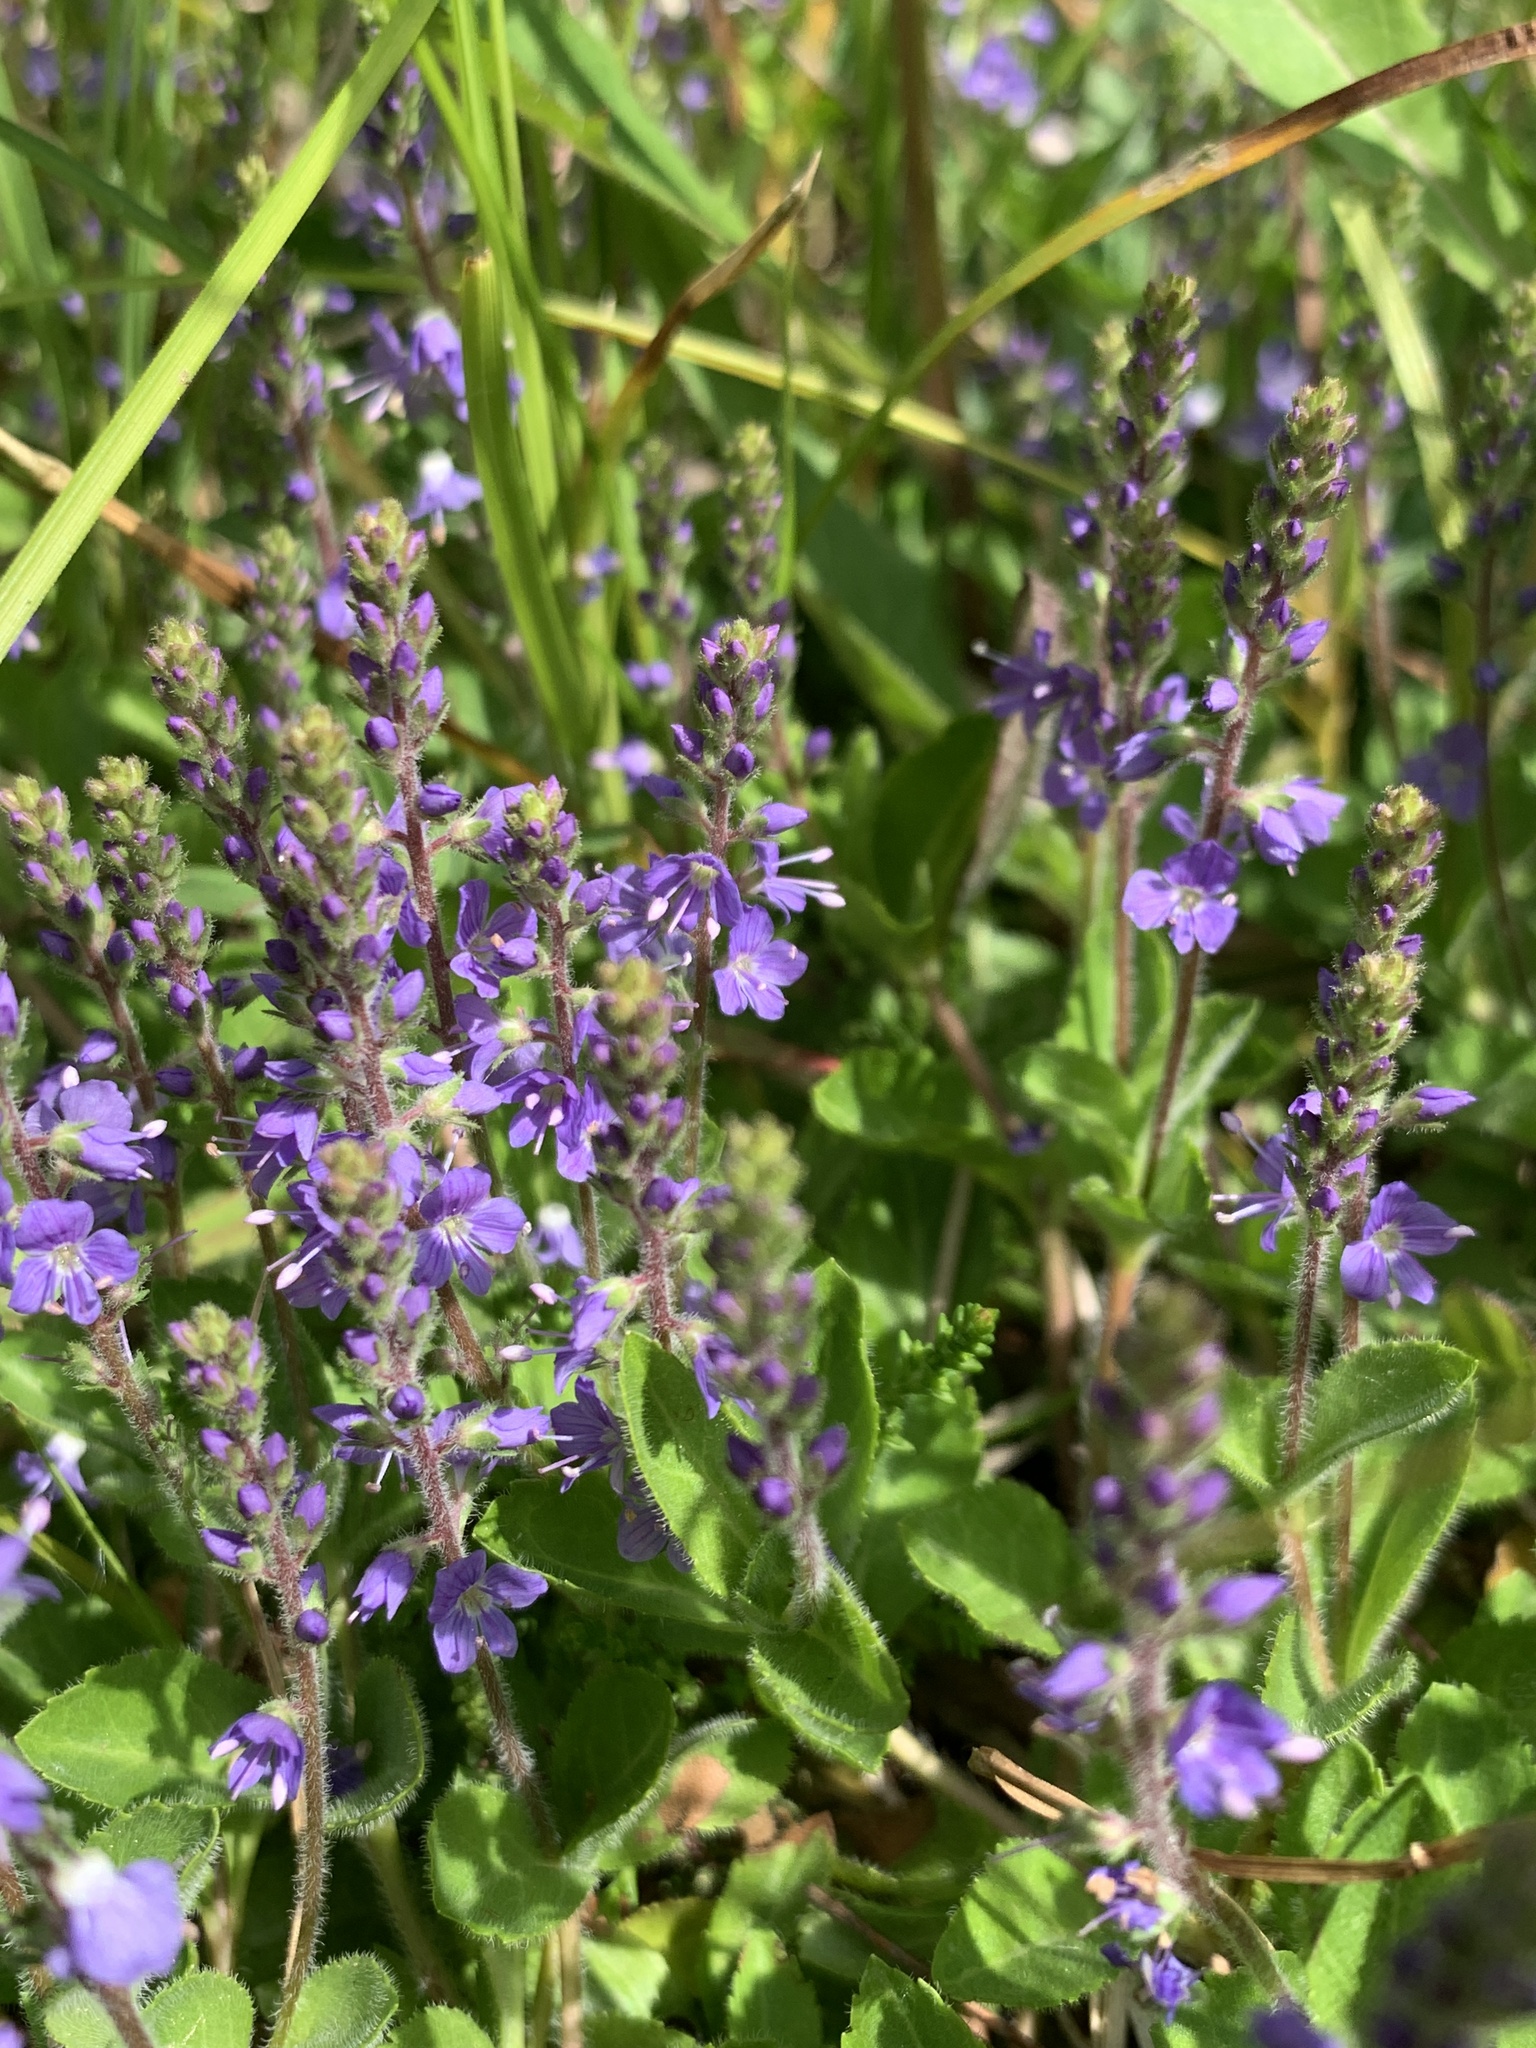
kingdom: Plantae
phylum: Tracheophyta
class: Magnoliopsida
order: Lamiales
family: Plantaginaceae
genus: Veronica
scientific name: Veronica officinalis
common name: Common speedwell
